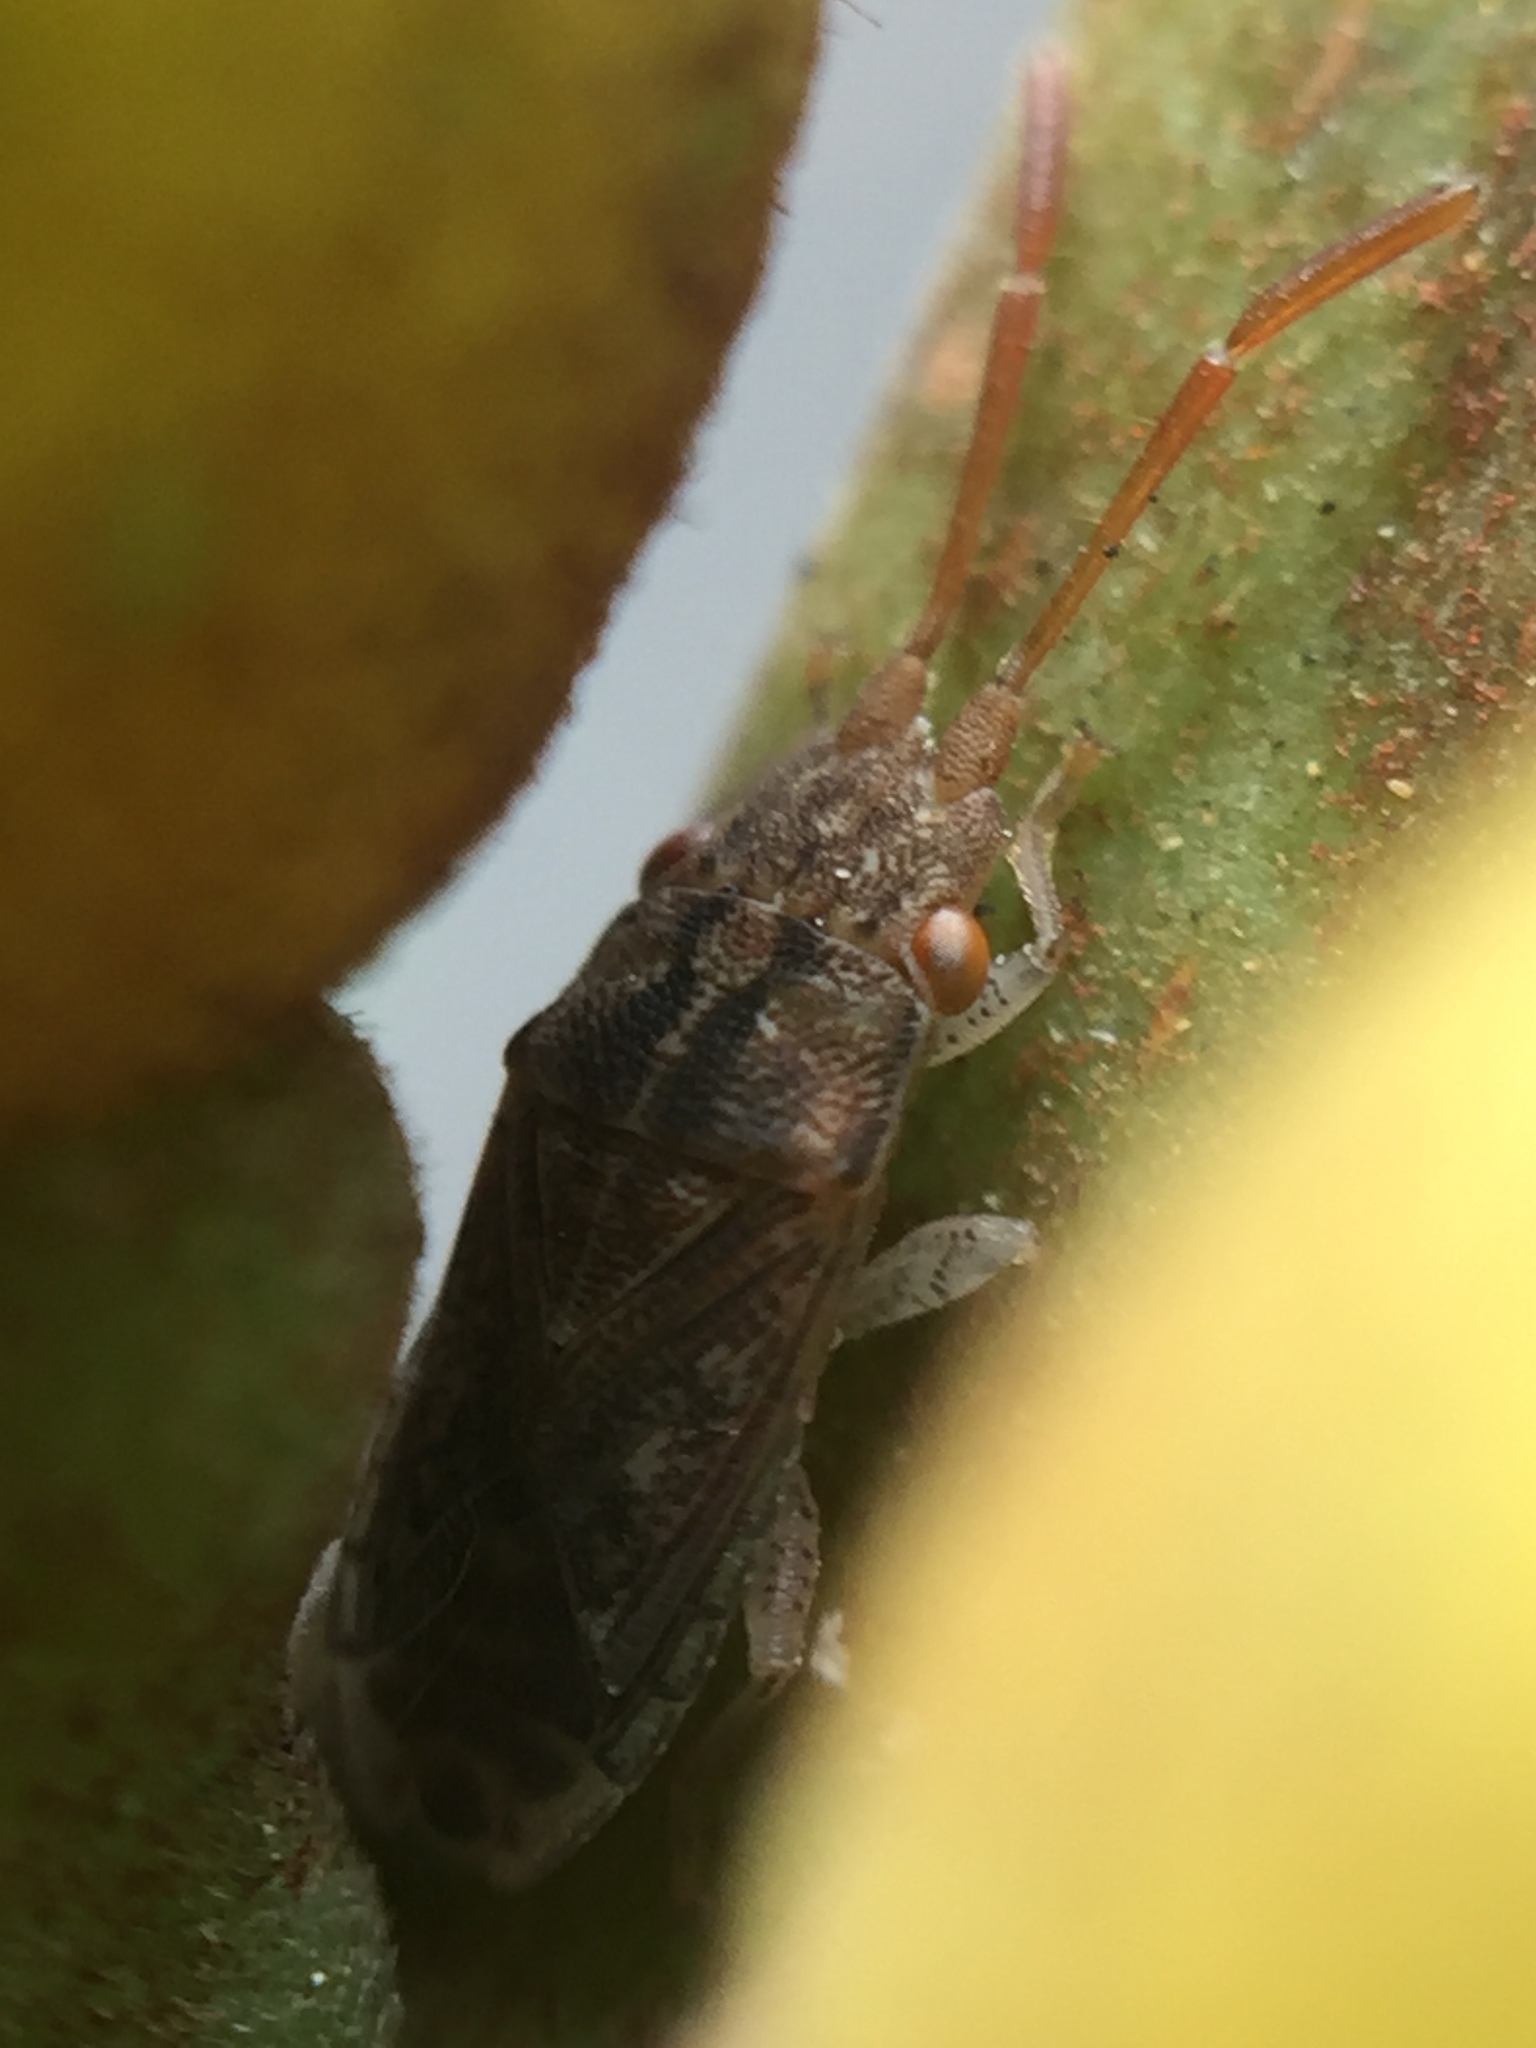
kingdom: Animalia
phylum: Arthropoda
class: Insecta
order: Hemiptera
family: Meschiidae
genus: Meschia
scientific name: Meschia barrowensis
